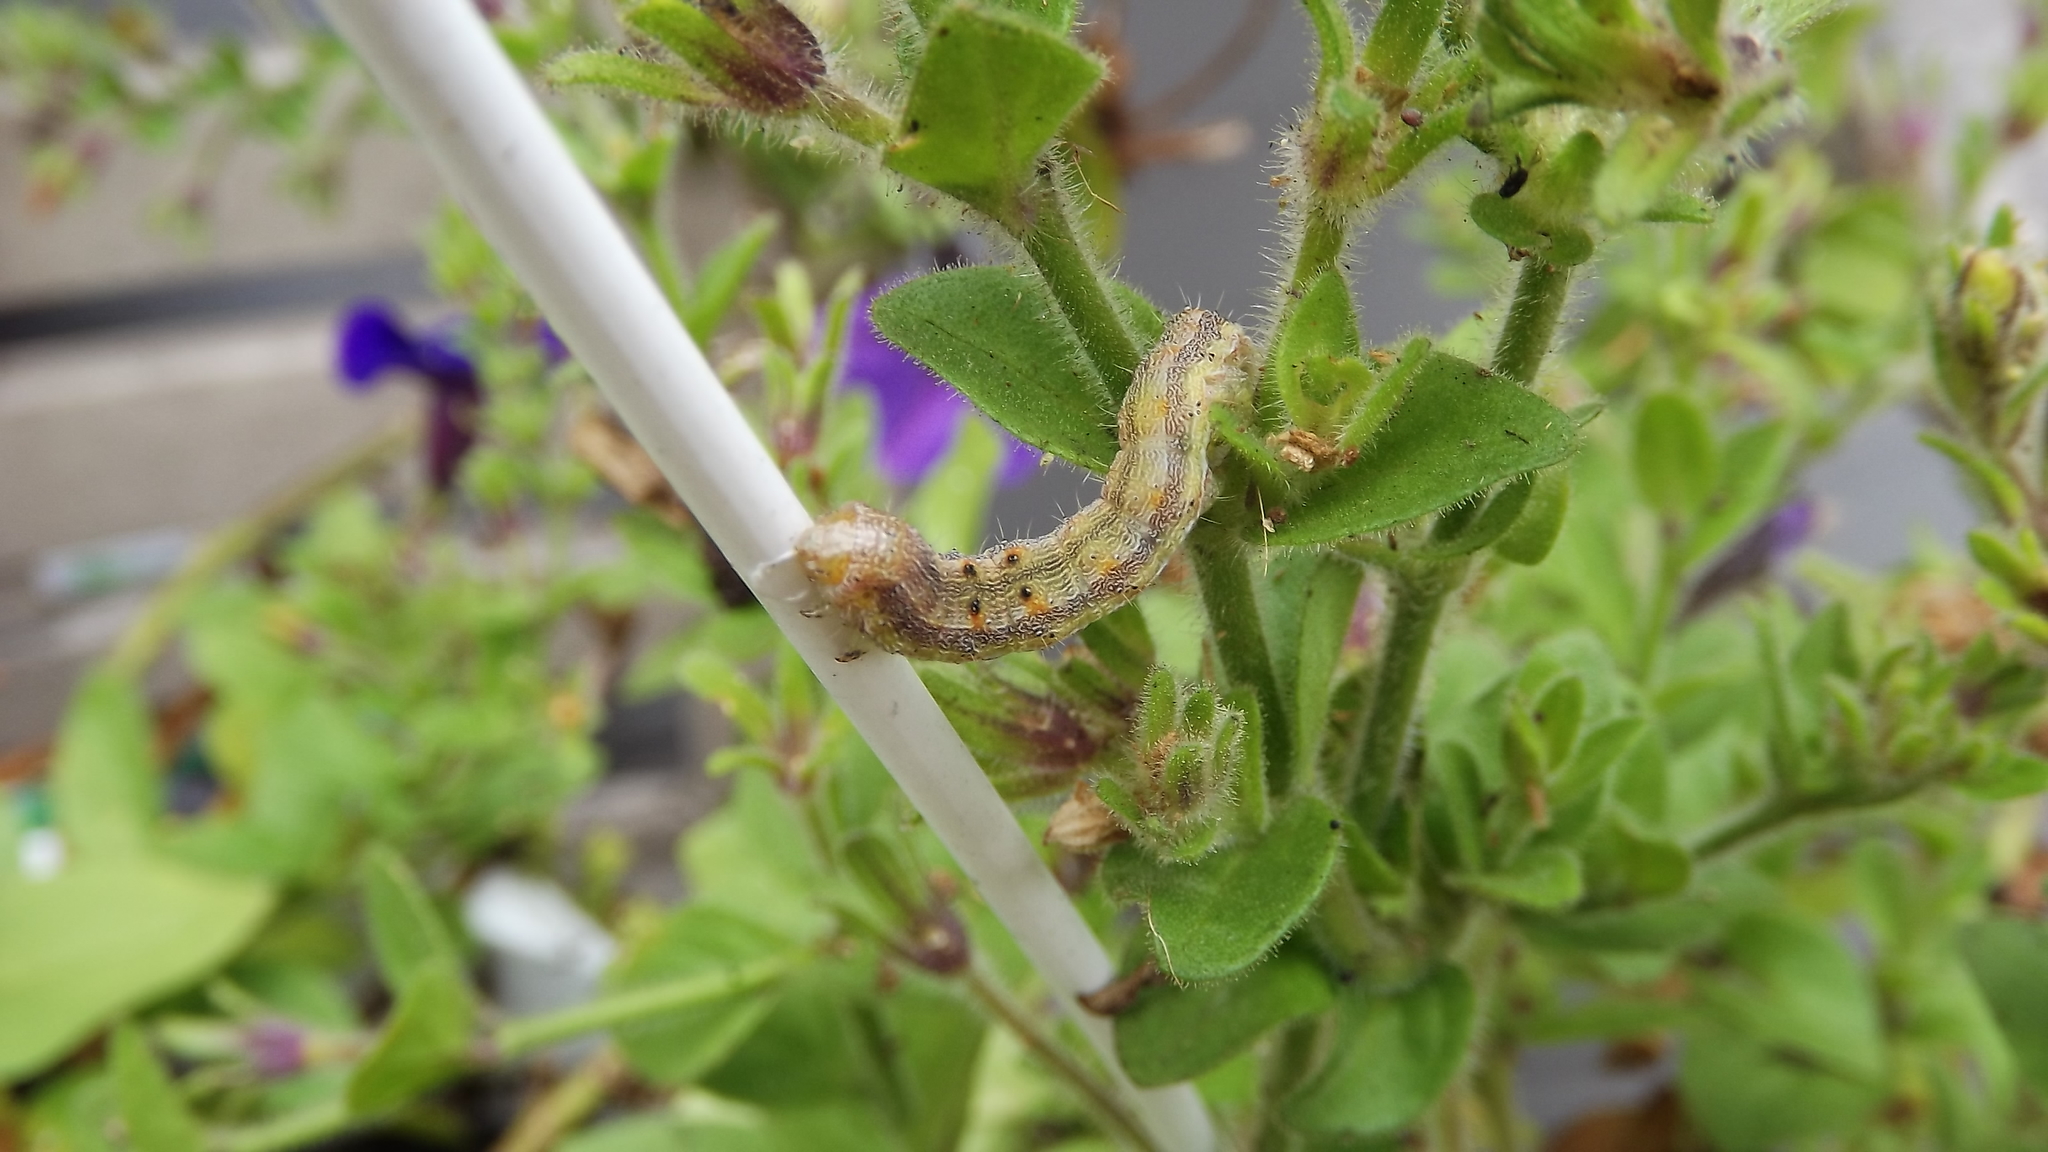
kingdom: Animalia
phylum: Arthropoda
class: Insecta
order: Lepidoptera
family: Noctuidae
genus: Chloridea
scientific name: Chloridea virescens
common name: Tobacco budworm
